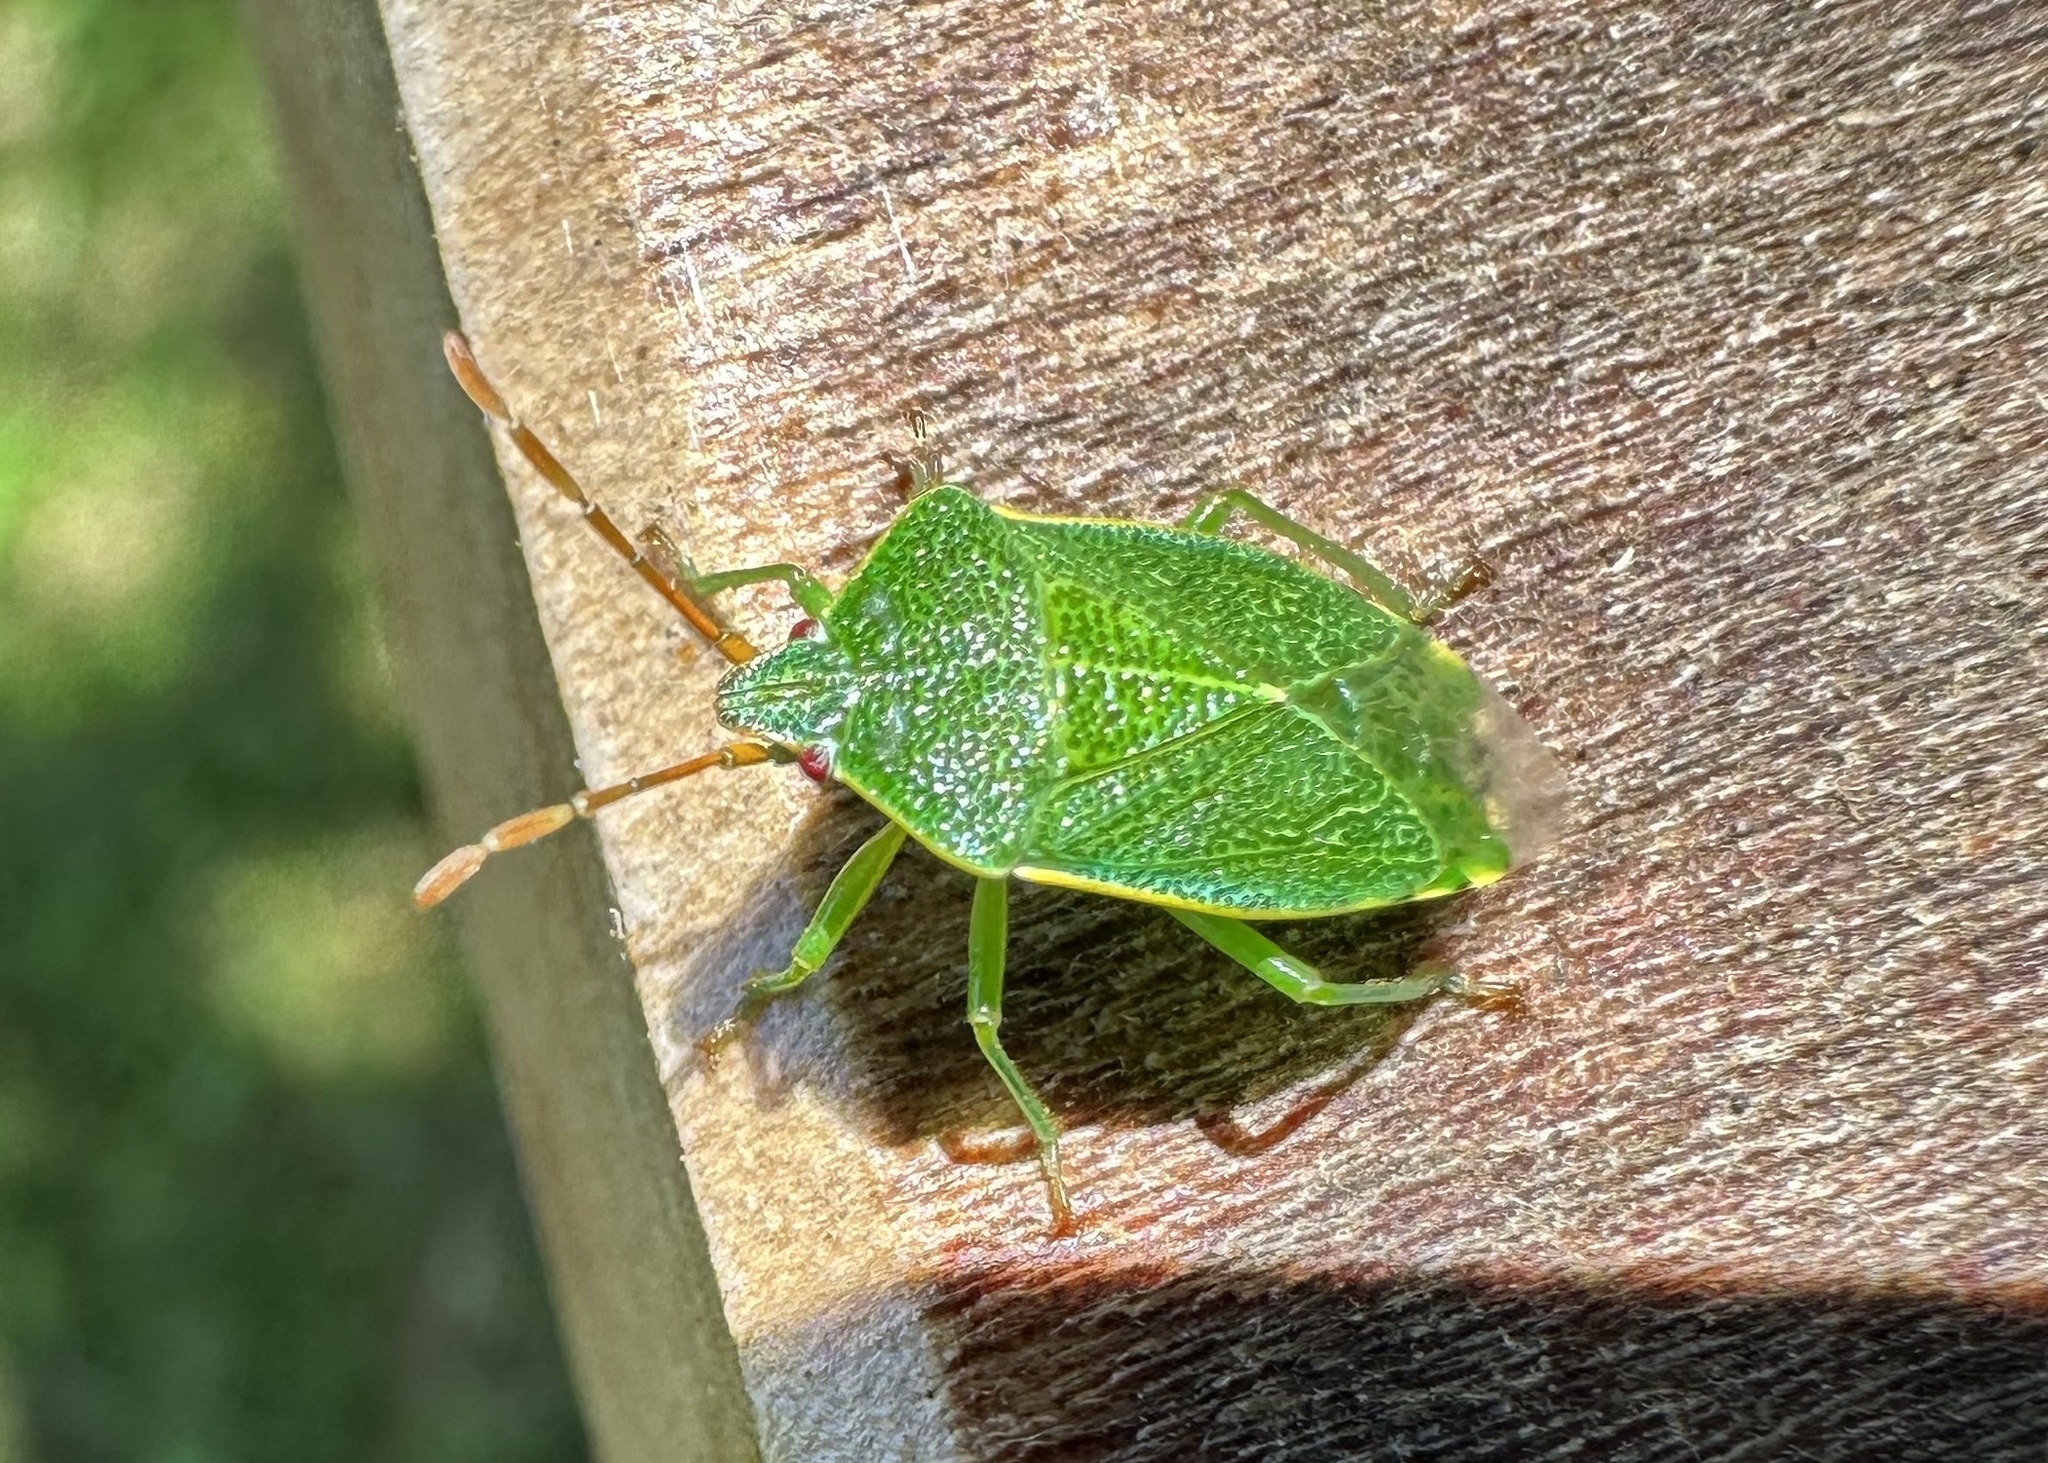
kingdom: Animalia
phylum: Arthropoda
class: Insecta
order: Hemiptera
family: Acanthosomatidae
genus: Sinopla
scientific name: Sinopla perpunctatus
